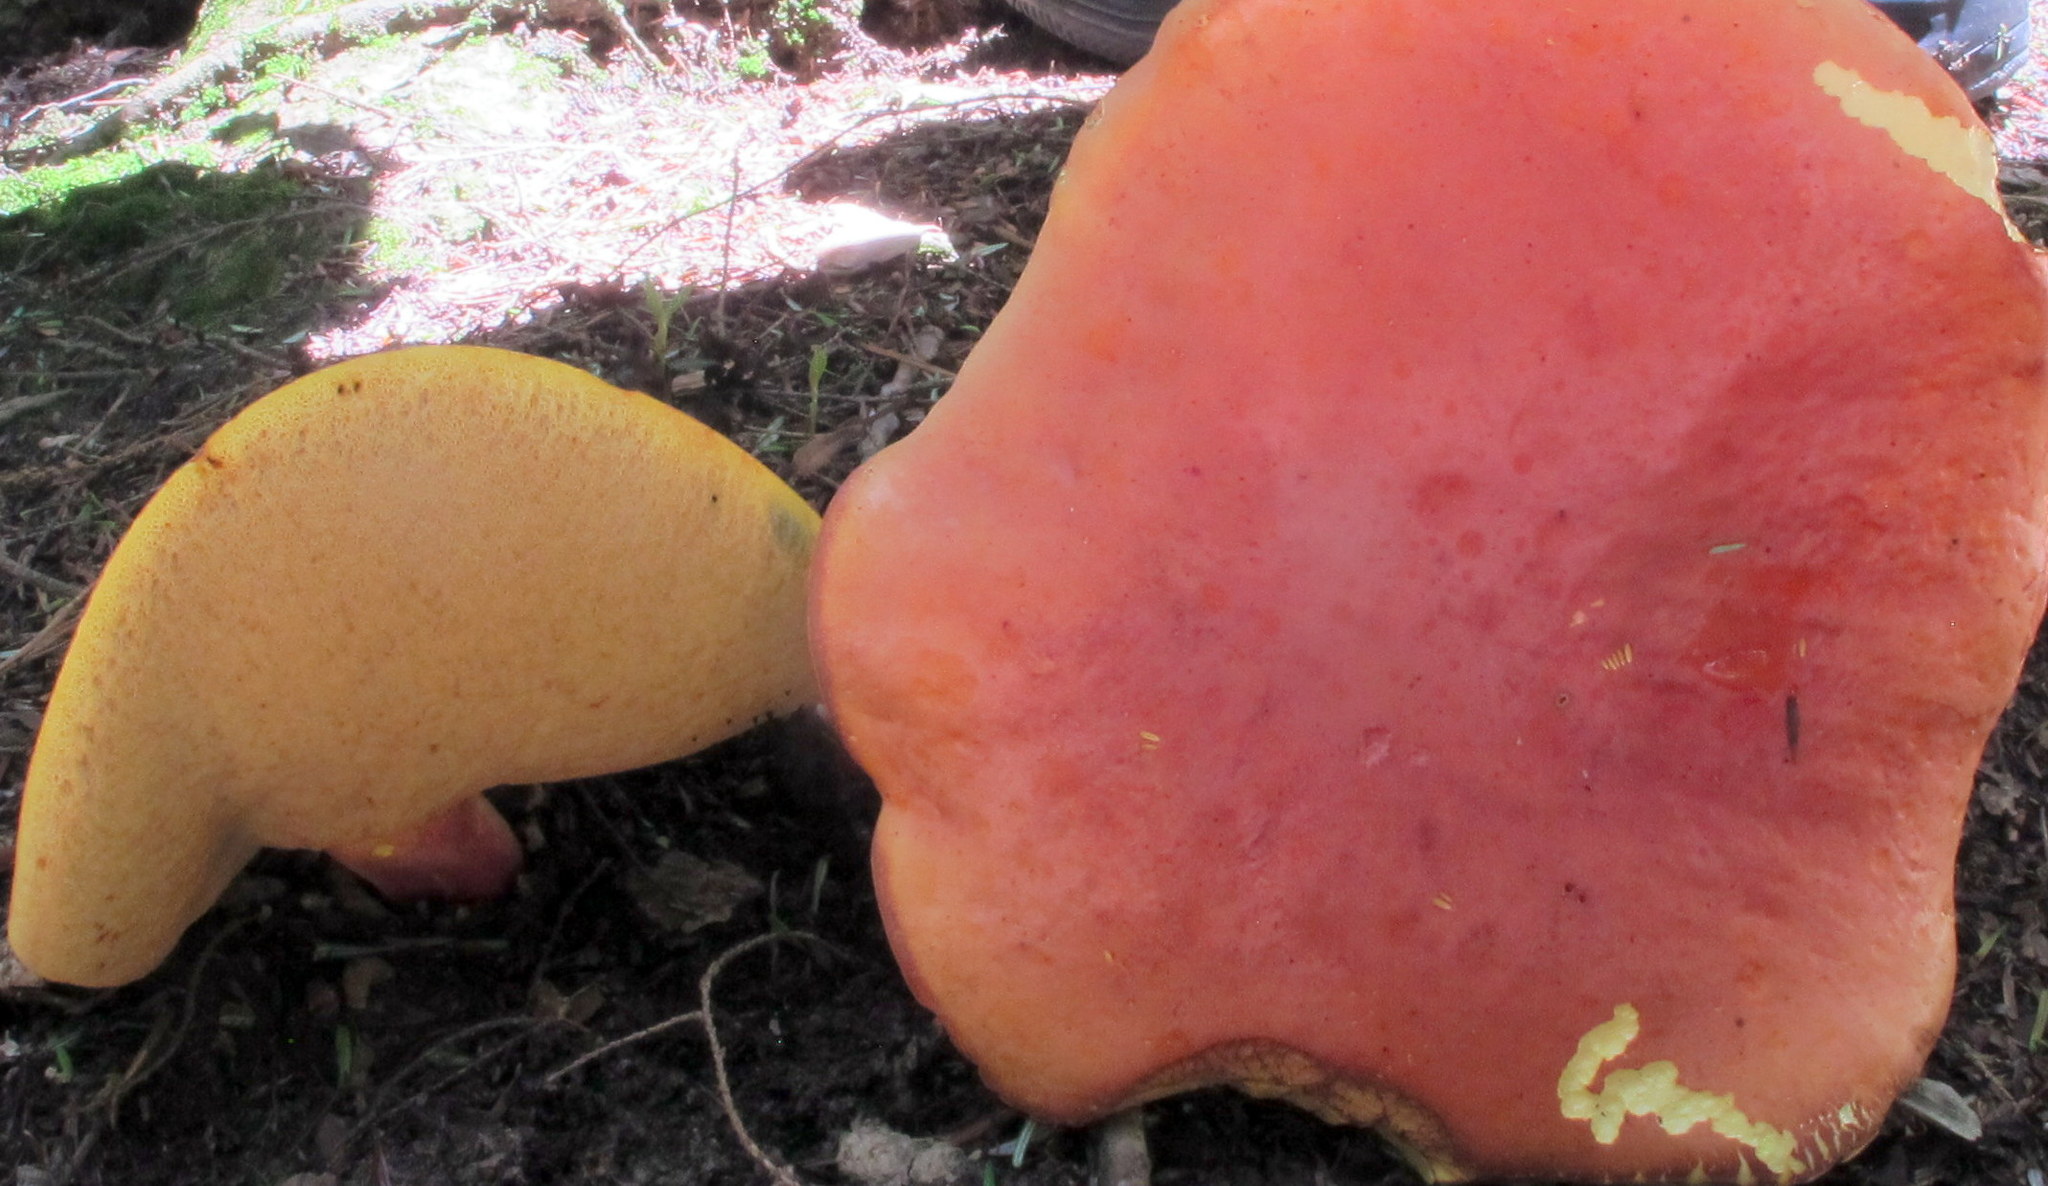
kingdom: Fungi
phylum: Basidiomycota
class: Agaricomycetes
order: Boletales
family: Boletaceae
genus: Baorangia
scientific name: Baorangia bicolor
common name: Two-colored bolete
